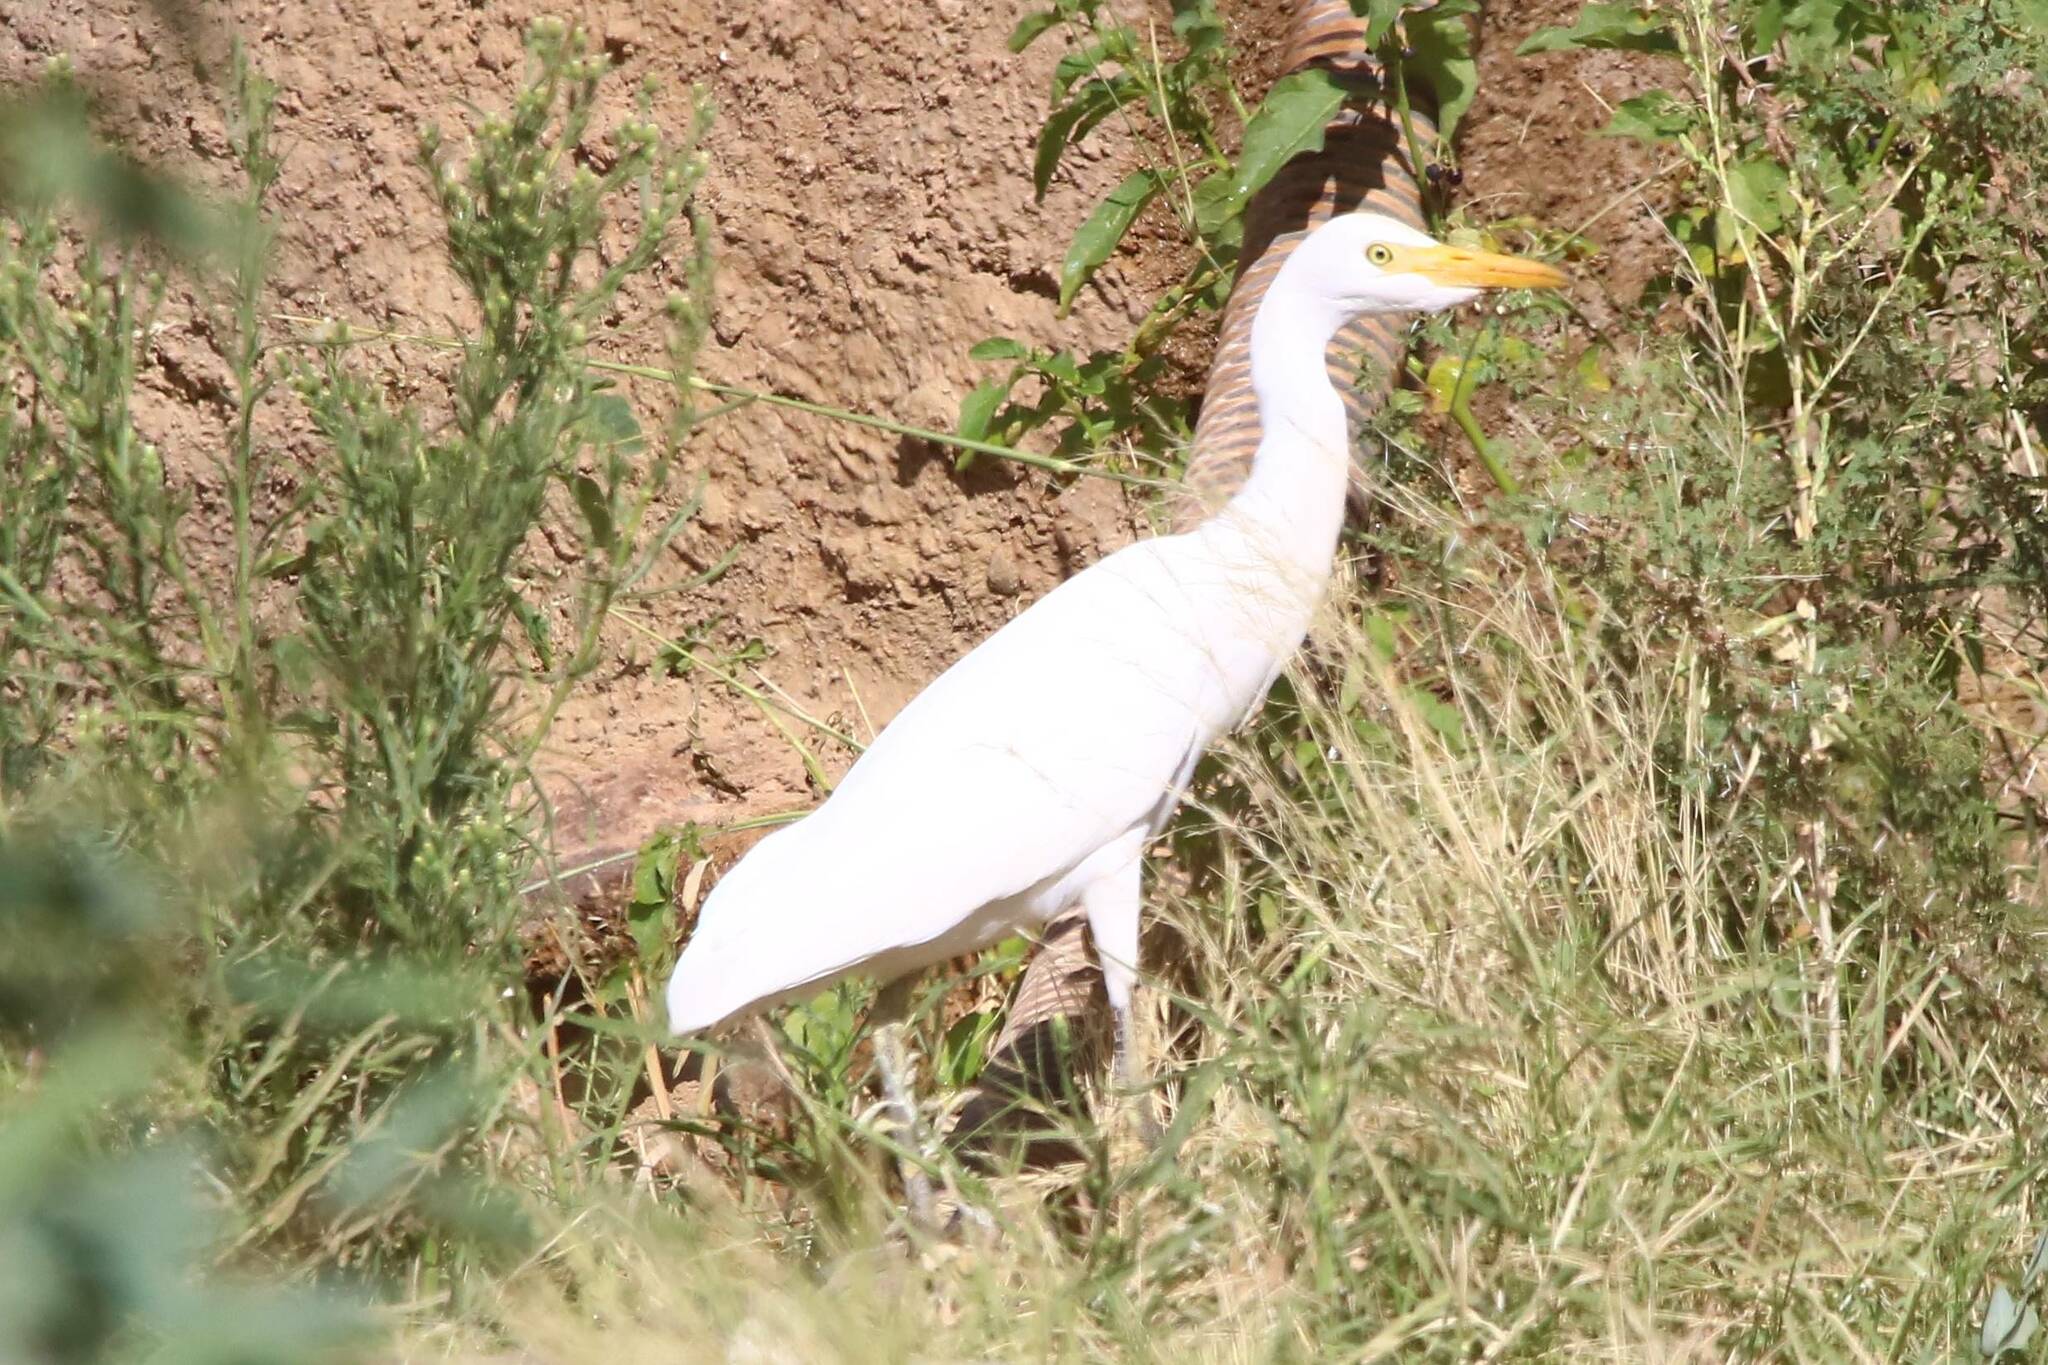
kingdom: Animalia
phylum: Chordata
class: Aves
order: Pelecaniformes
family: Ardeidae
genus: Bubulcus
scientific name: Bubulcus ibis
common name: Cattle egret
